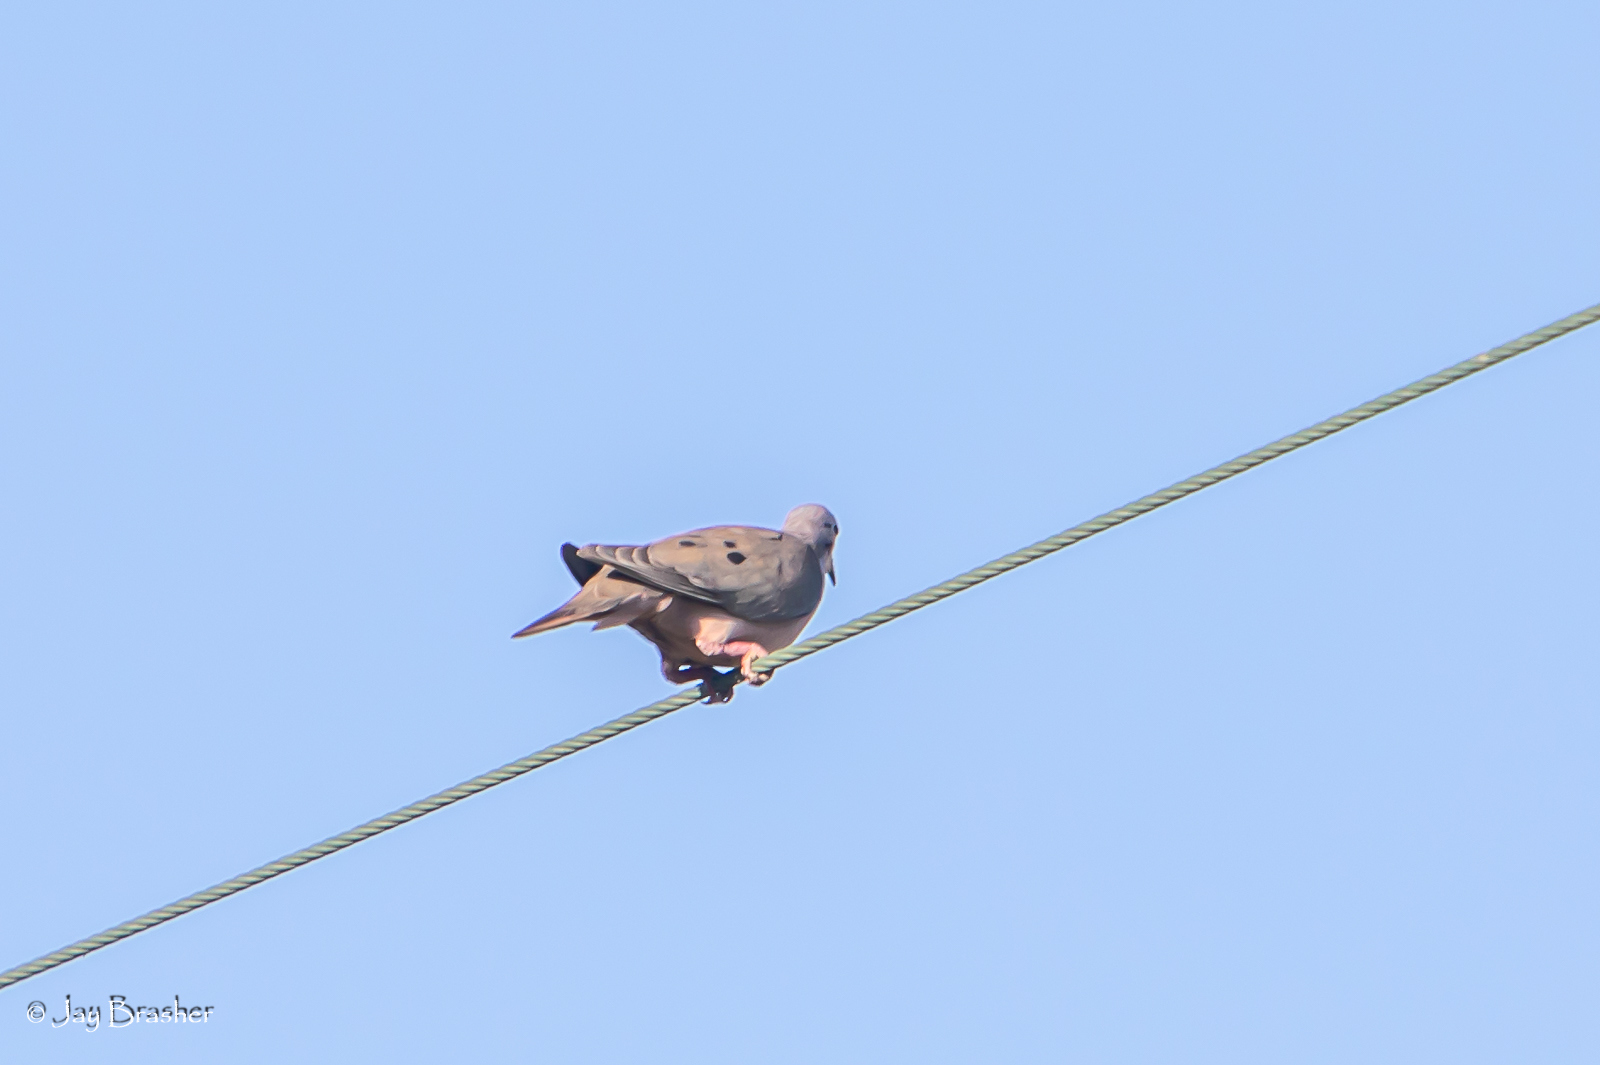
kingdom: Animalia
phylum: Chordata
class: Aves
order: Columbiformes
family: Columbidae
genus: Zenaida
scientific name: Zenaida auriculata
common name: Eared dove
